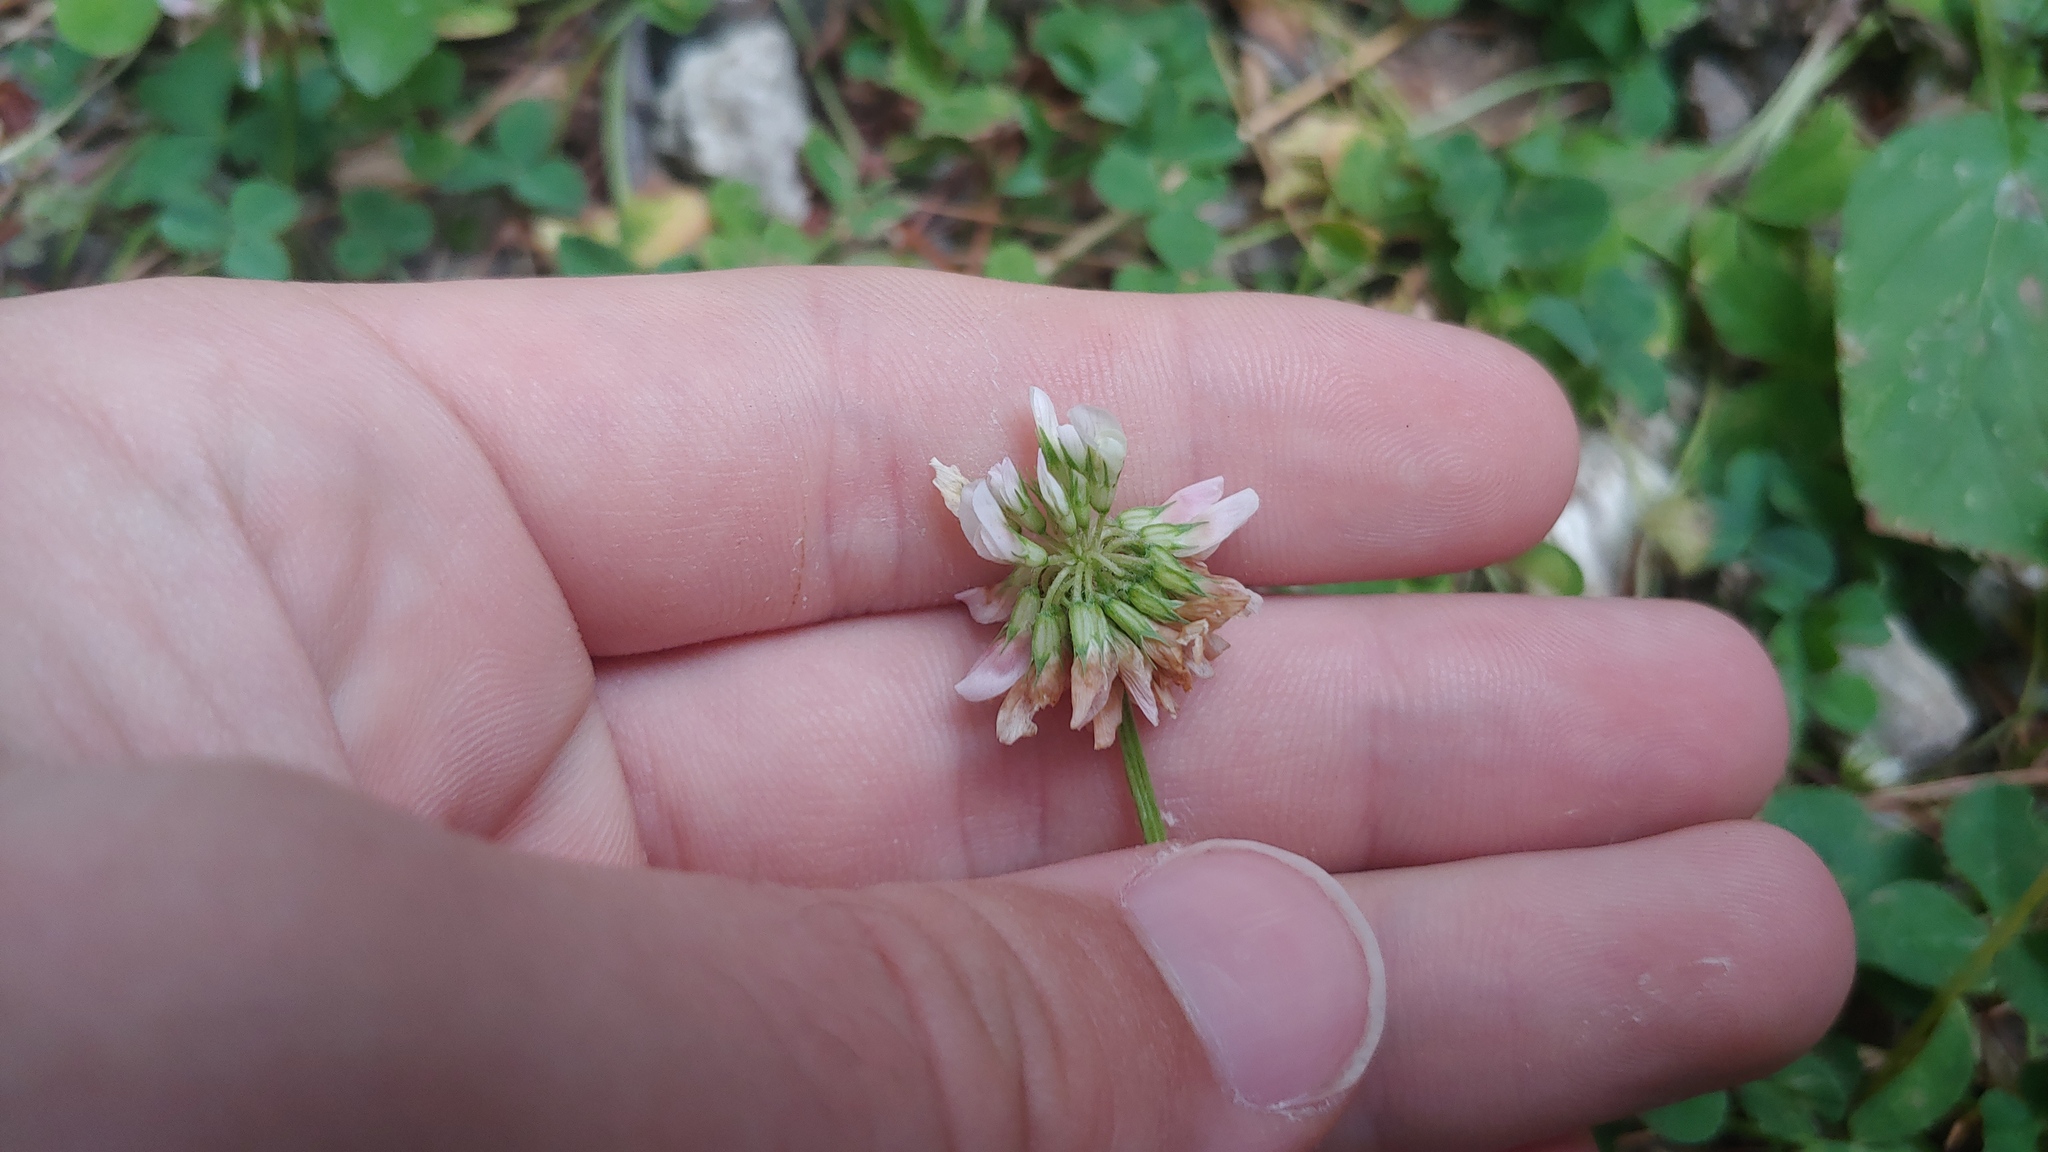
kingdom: Plantae
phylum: Tracheophyta
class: Magnoliopsida
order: Fabales
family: Fabaceae
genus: Trifolium
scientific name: Trifolium repens
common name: White clover
